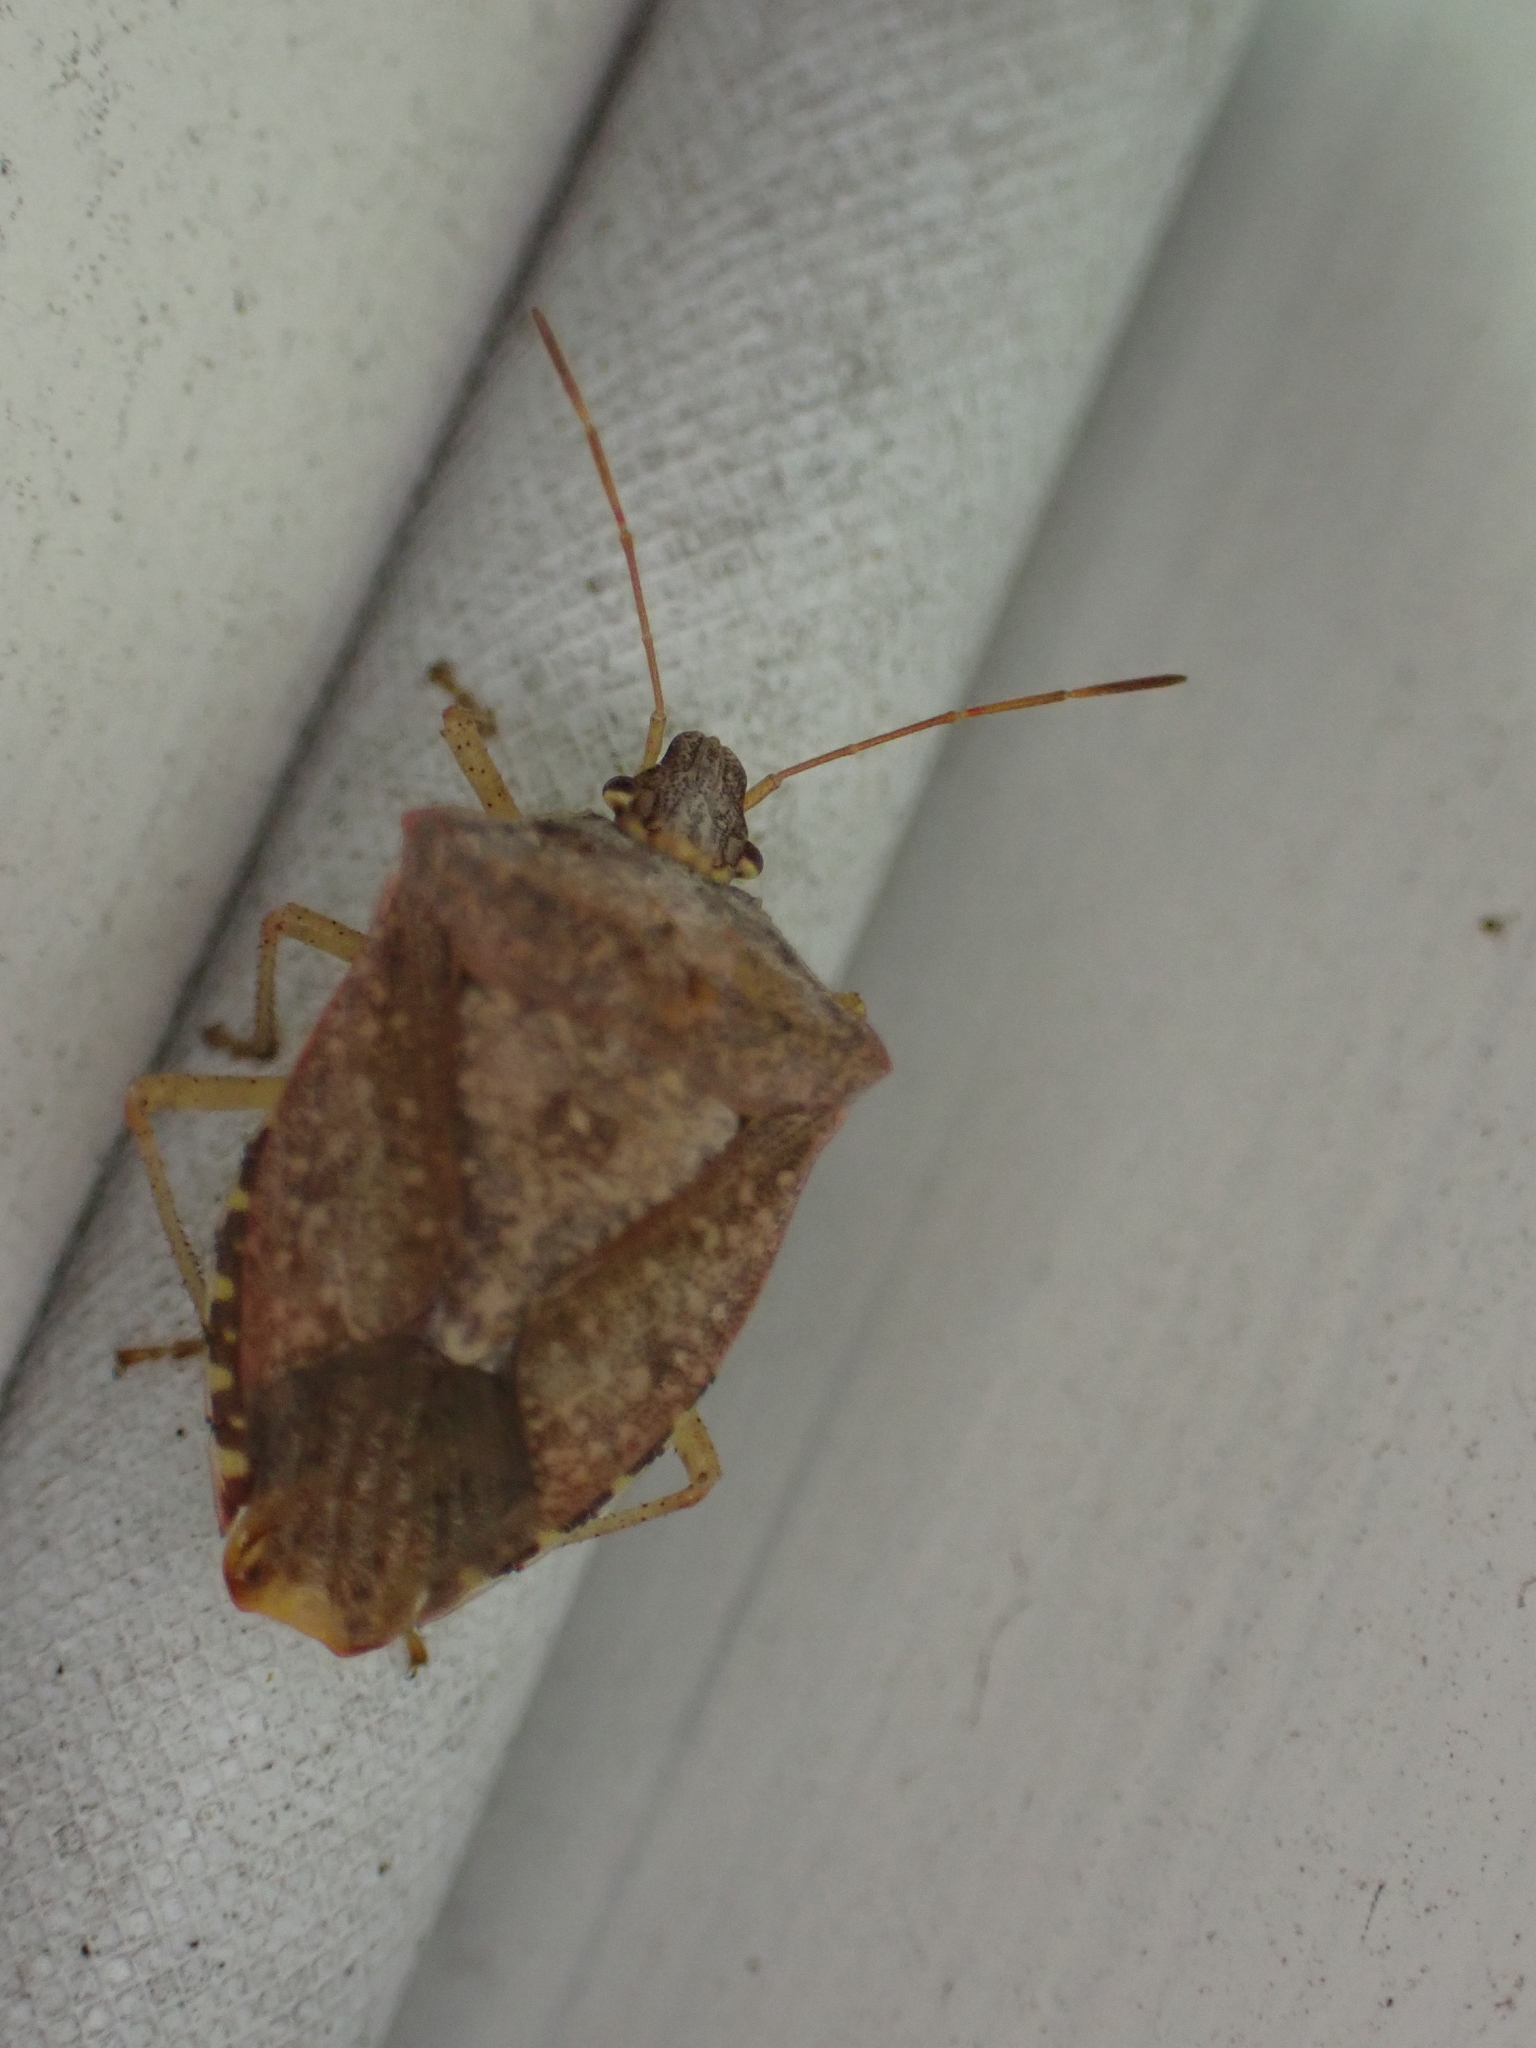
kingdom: Animalia
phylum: Arthropoda
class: Insecta
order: Hemiptera
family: Pentatomidae
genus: Euschistus
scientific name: Euschistus servus
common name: Brown stink bug
